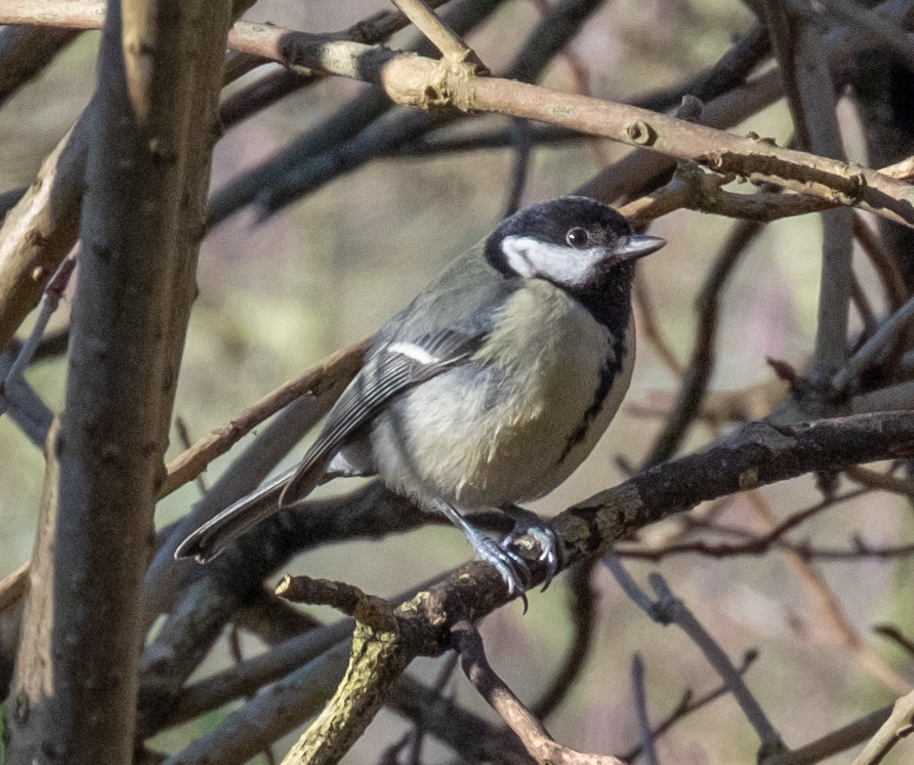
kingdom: Animalia
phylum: Chordata
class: Aves
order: Passeriformes
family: Paridae
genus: Parus
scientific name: Parus major
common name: Great tit
